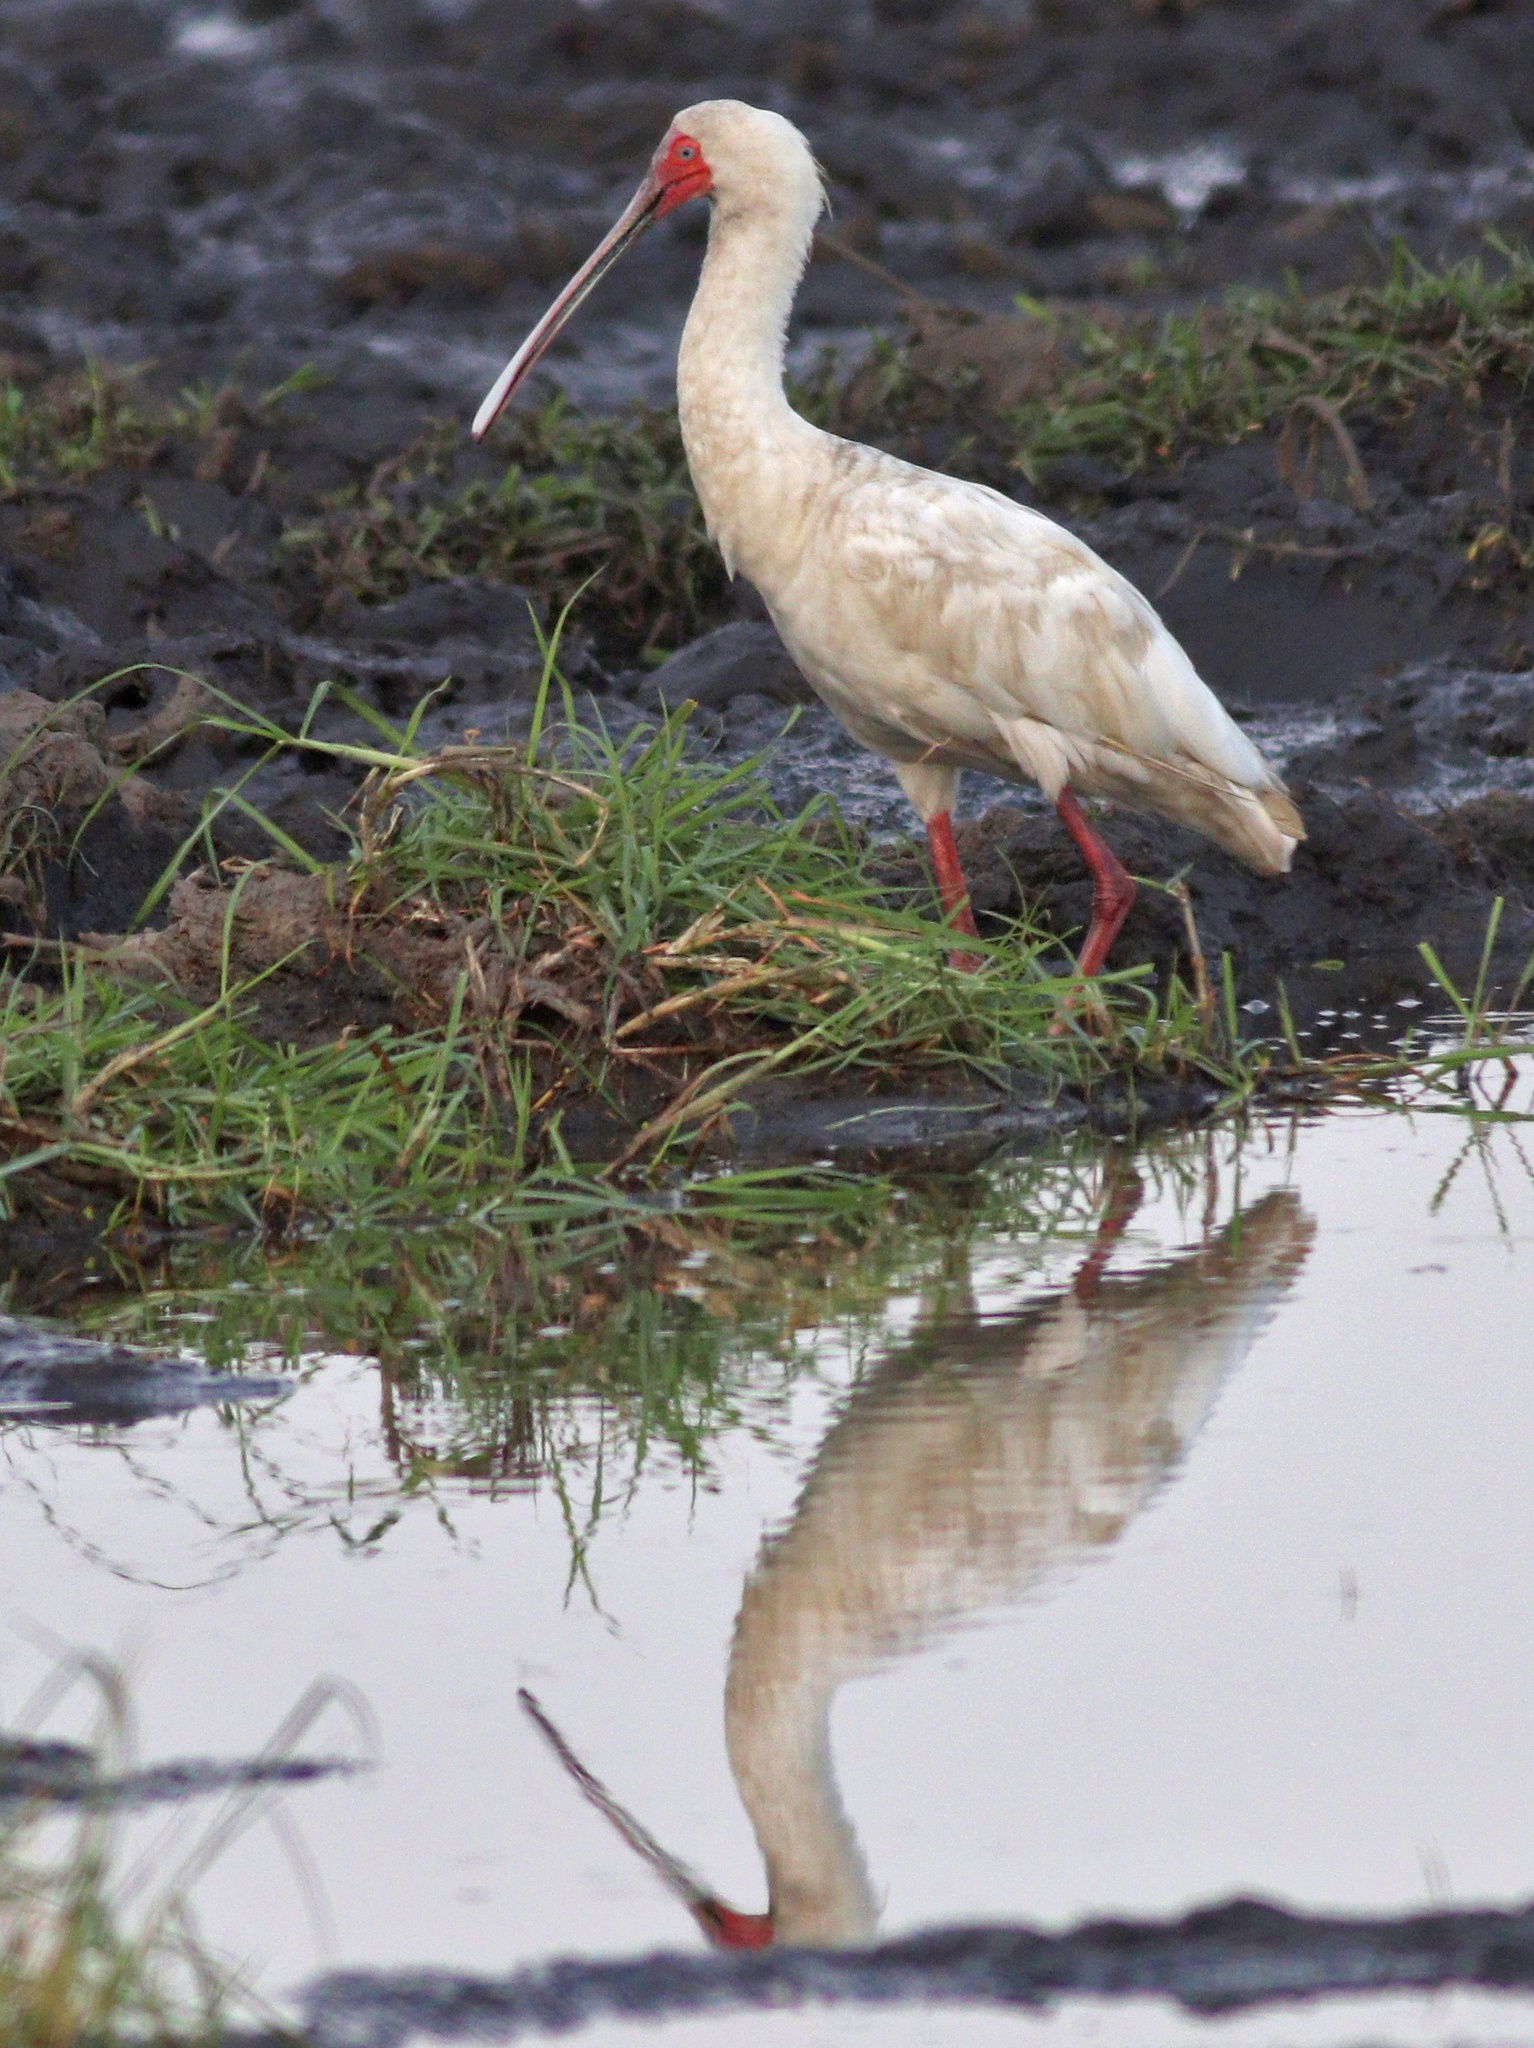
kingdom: Animalia
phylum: Chordata
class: Aves
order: Pelecaniformes
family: Threskiornithidae
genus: Platalea
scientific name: Platalea alba
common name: African spoonbill
